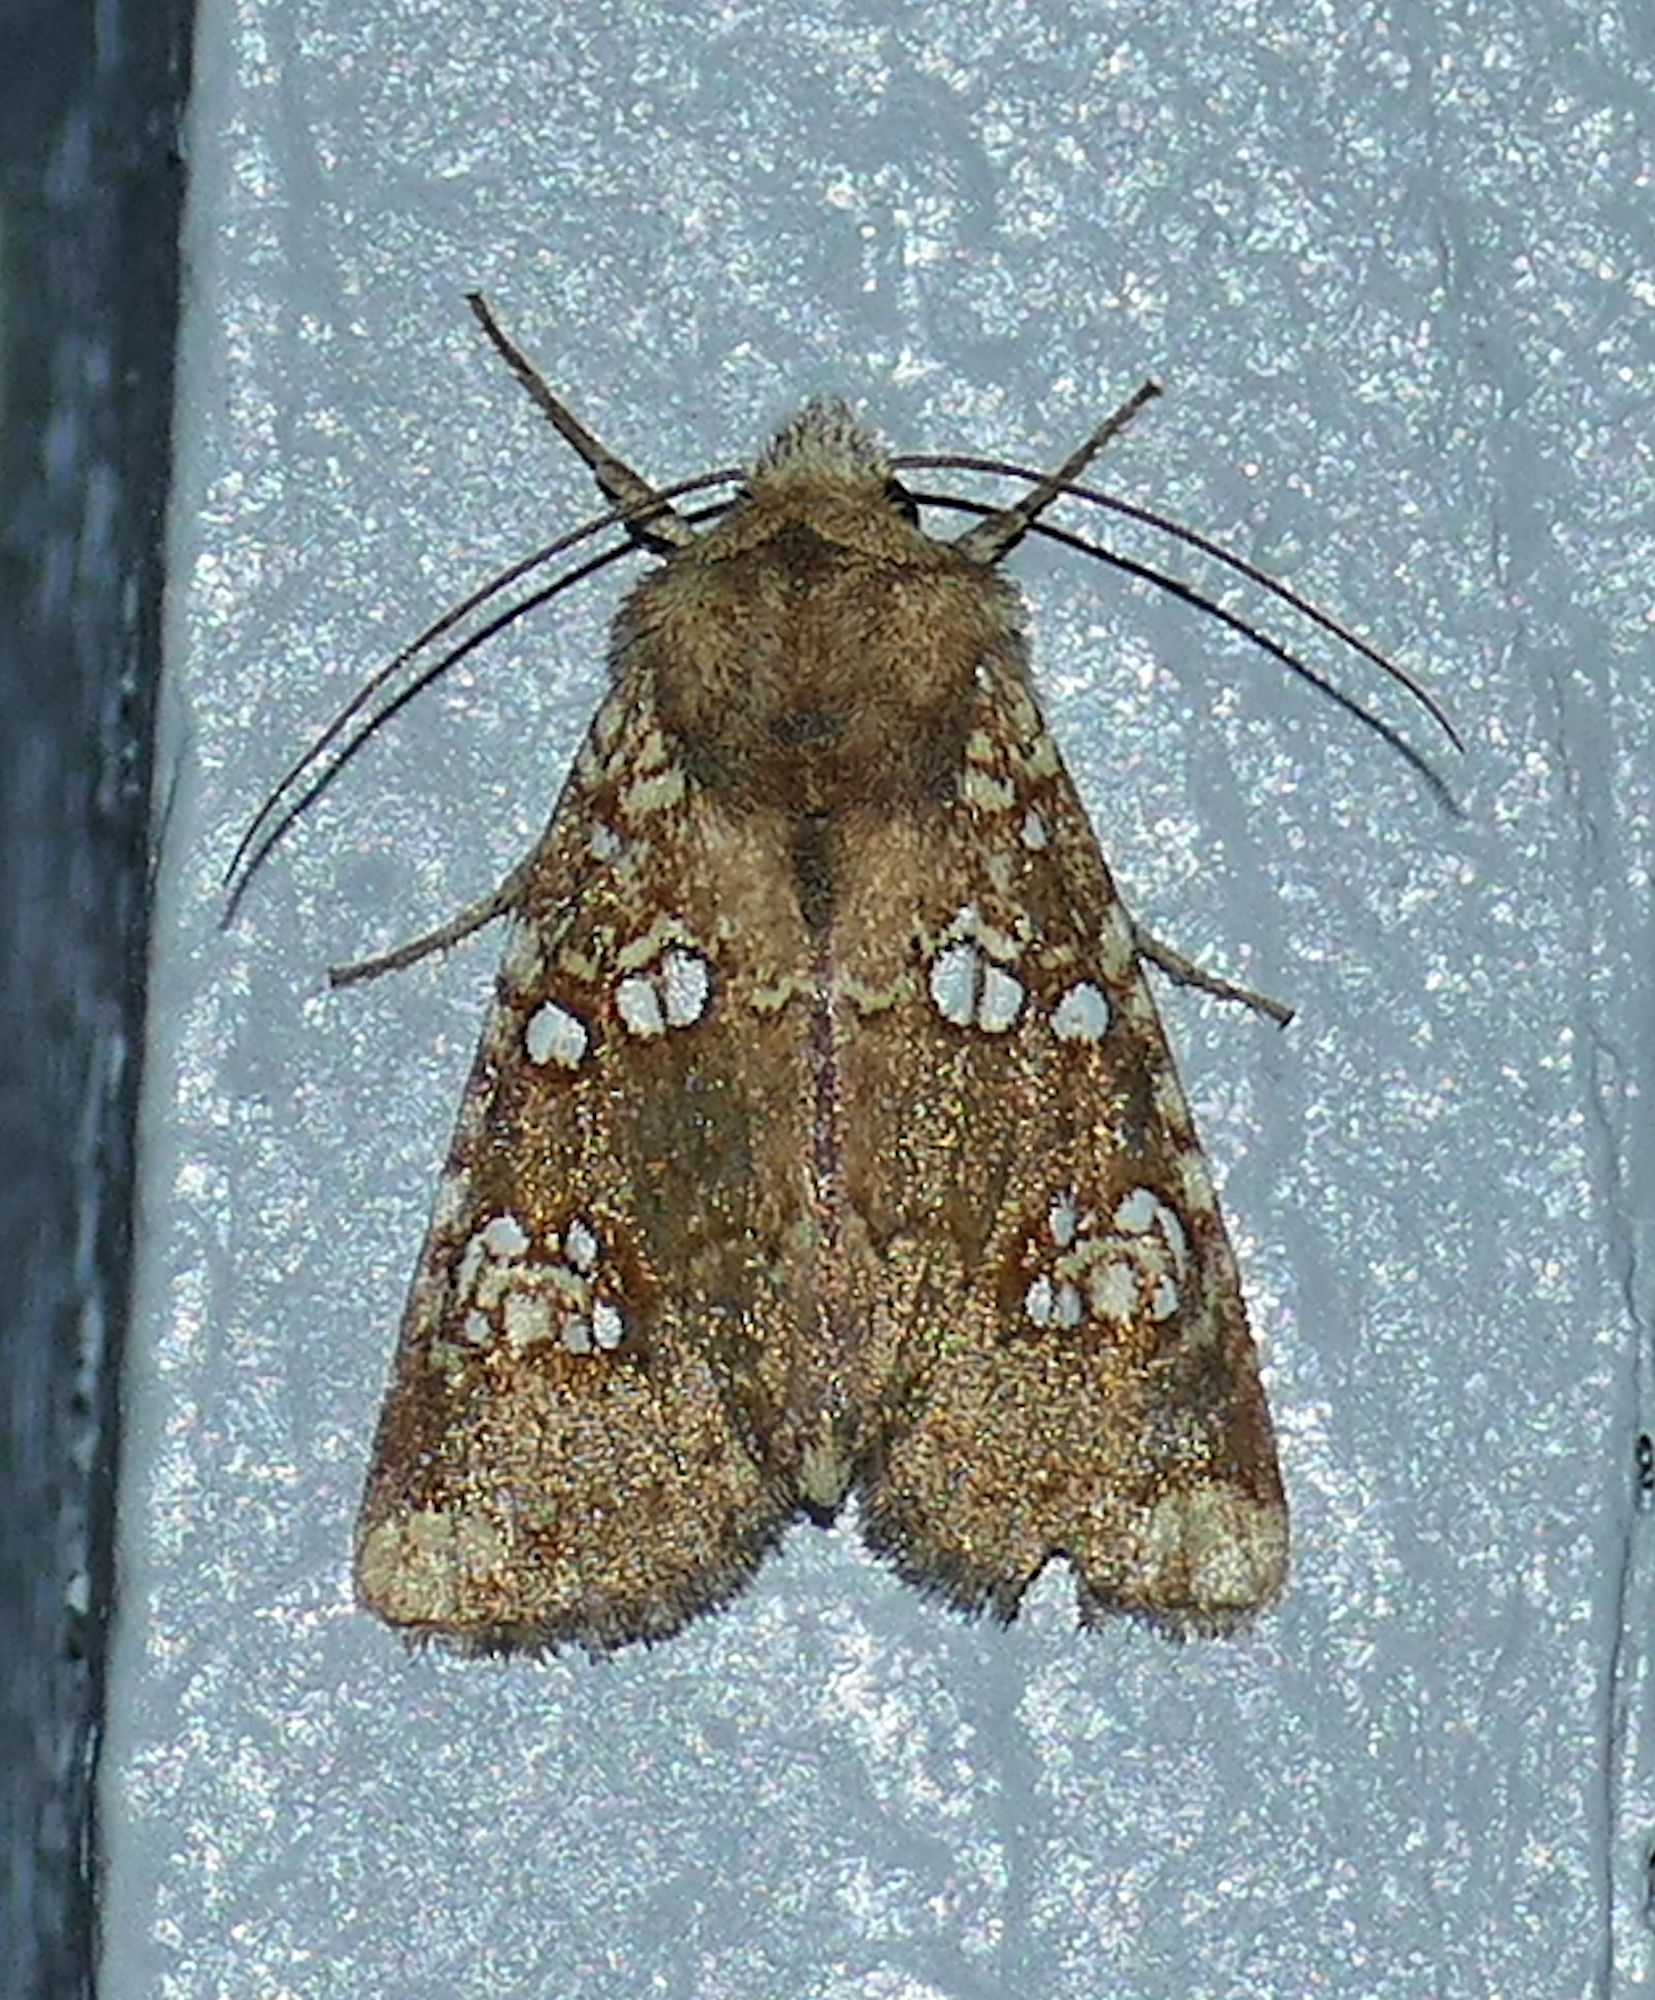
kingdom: Animalia
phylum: Arthropoda
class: Insecta
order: Lepidoptera
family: Noctuidae
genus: Hydroeciodes
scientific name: Hydroeciodes serrata
